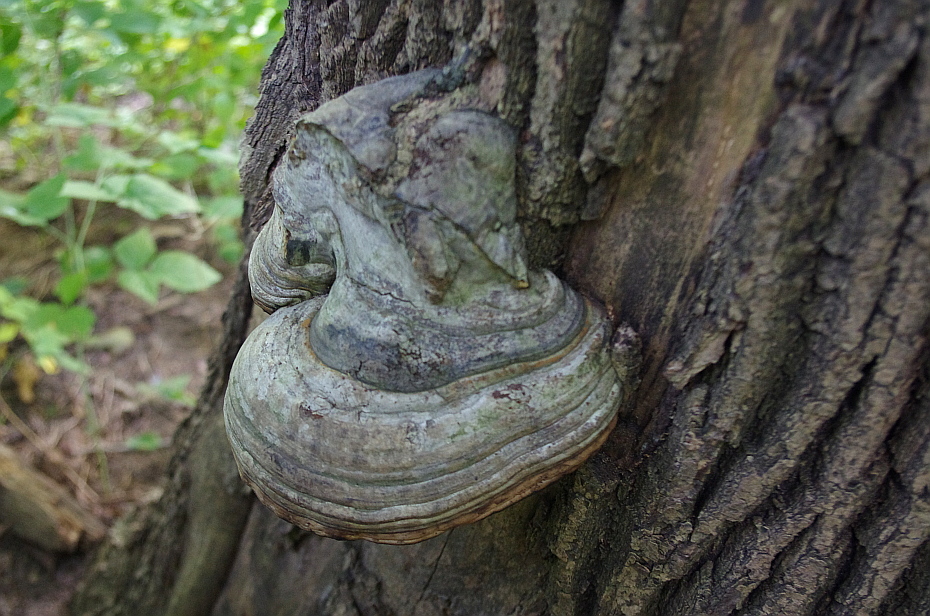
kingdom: Fungi
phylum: Basidiomycota
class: Agaricomycetes
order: Polyporales
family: Polyporaceae
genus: Fomes
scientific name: Fomes fomentarius
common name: Hoof fungus
